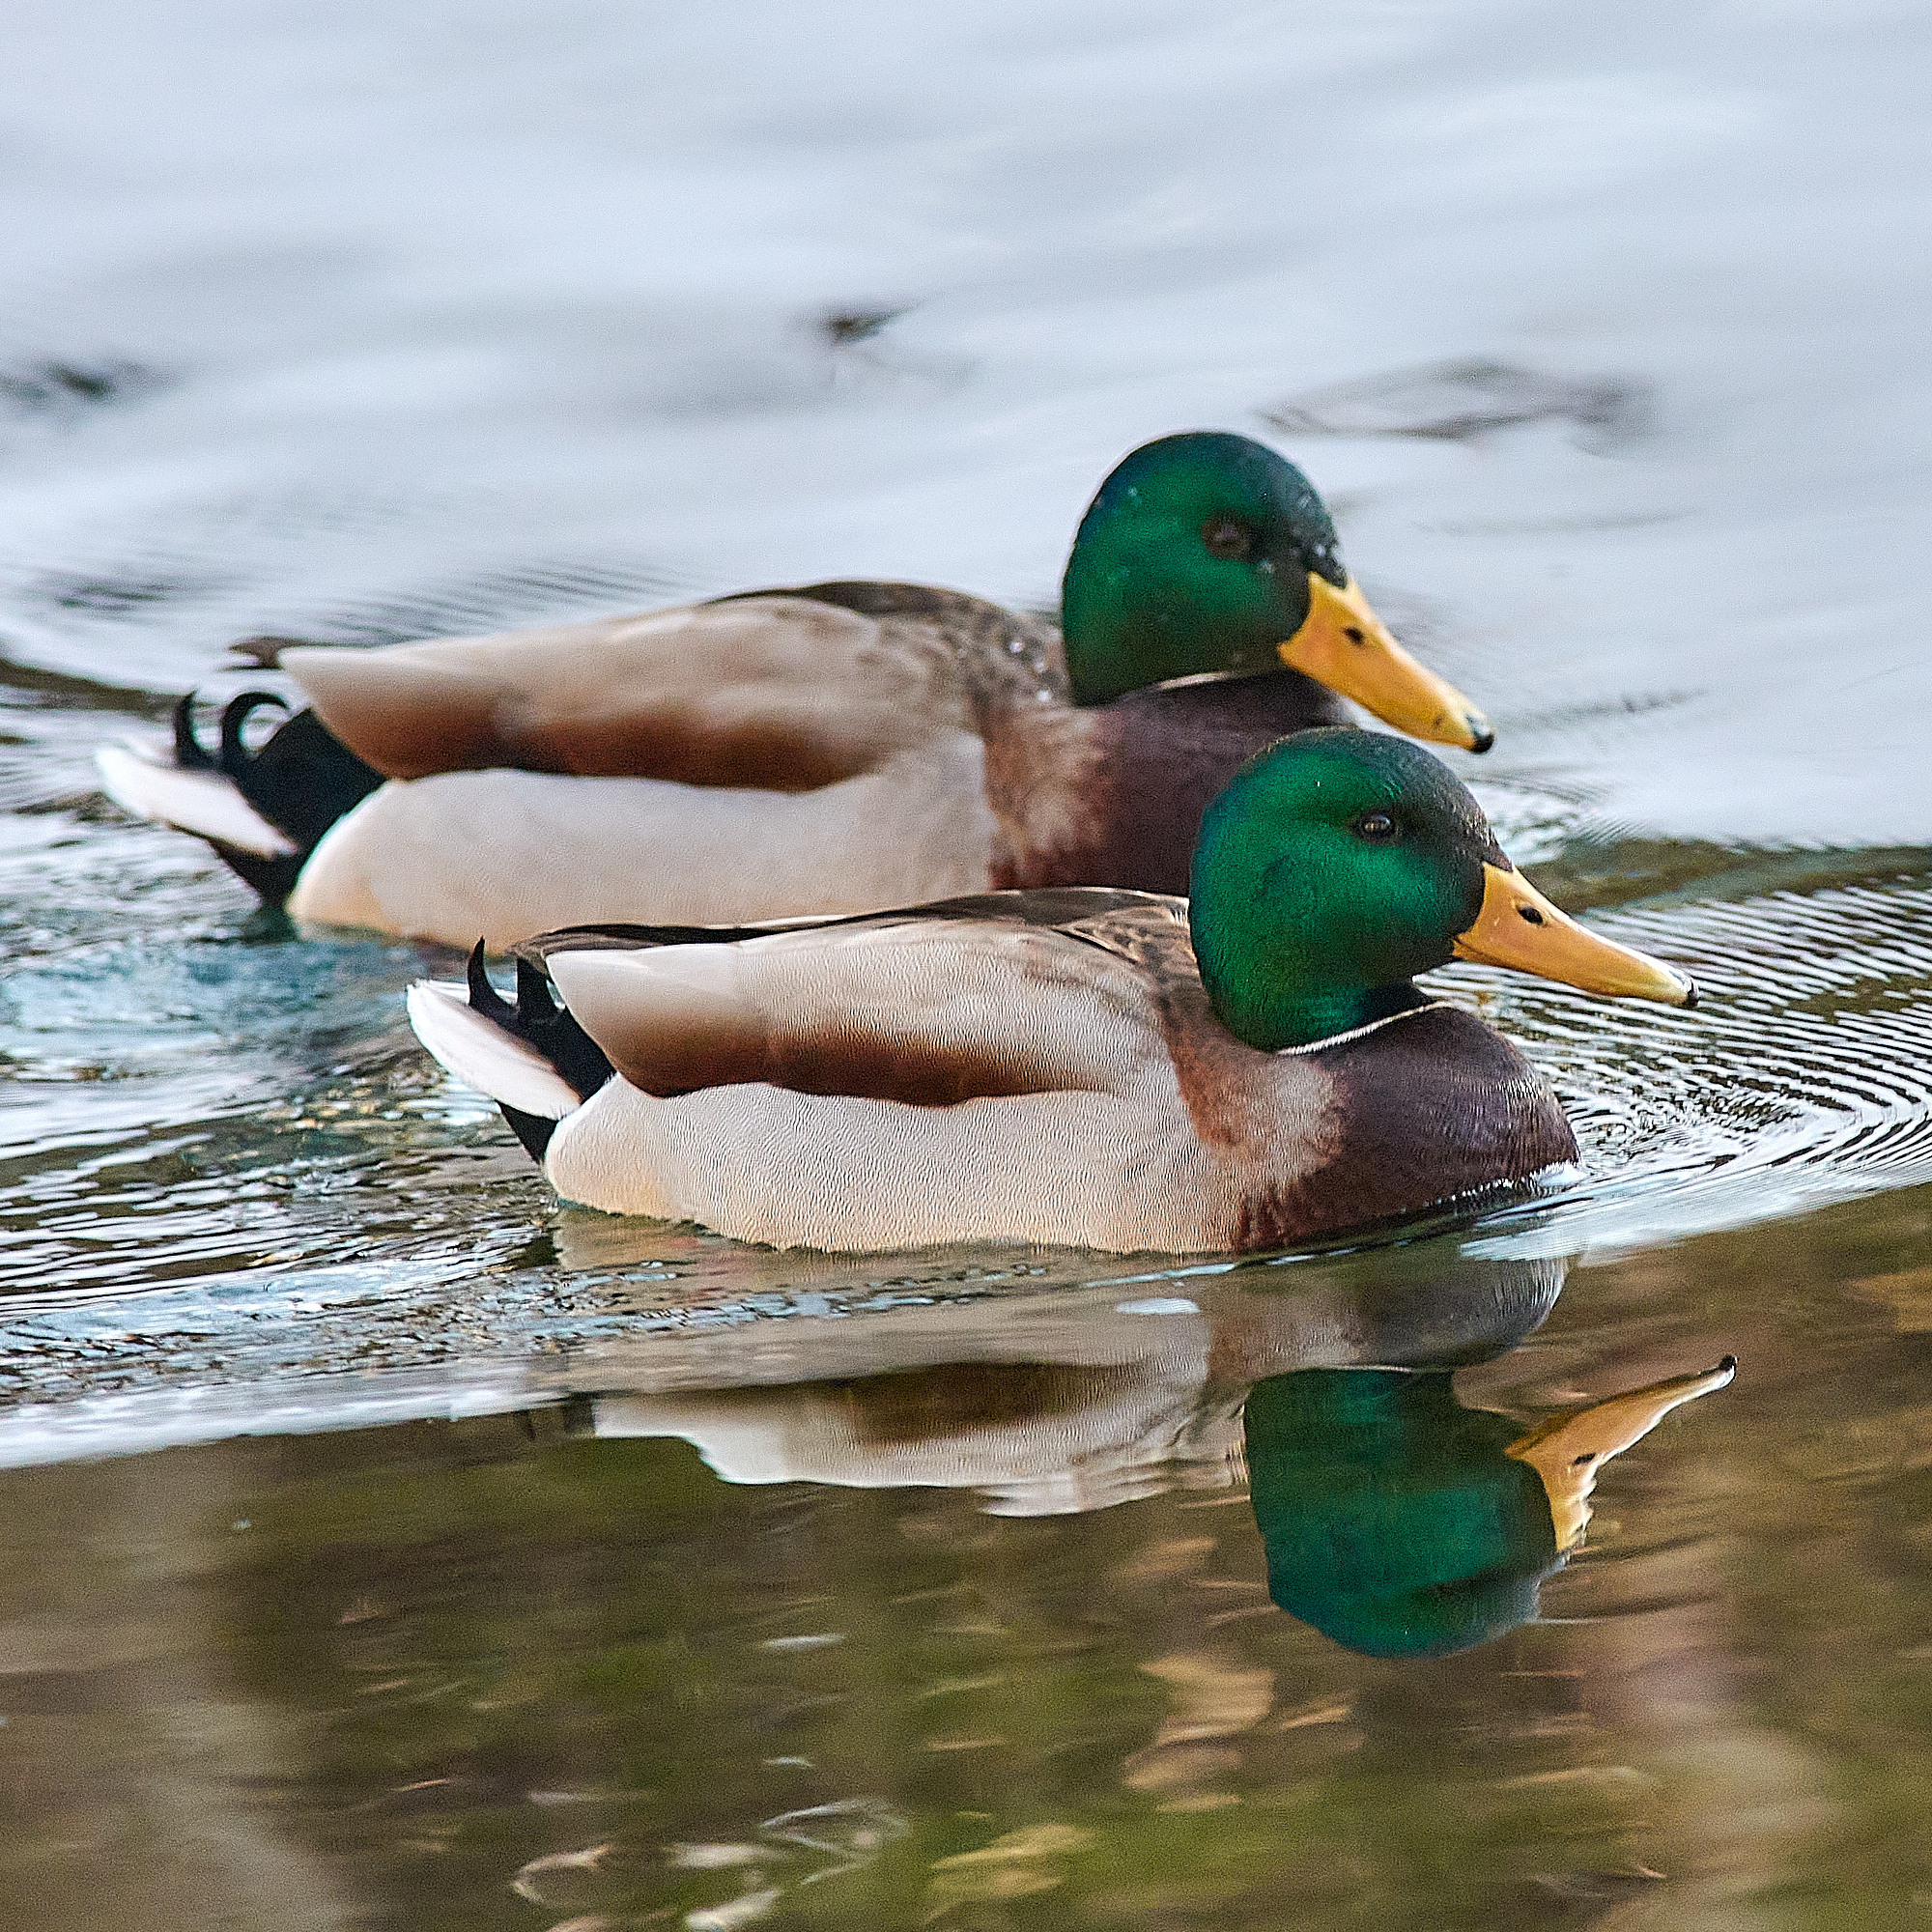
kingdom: Animalia
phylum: Chordata
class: Aves
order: Anseriformes
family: Anatidae
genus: Anas
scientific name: Anas platyrhynchos
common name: Mallard
